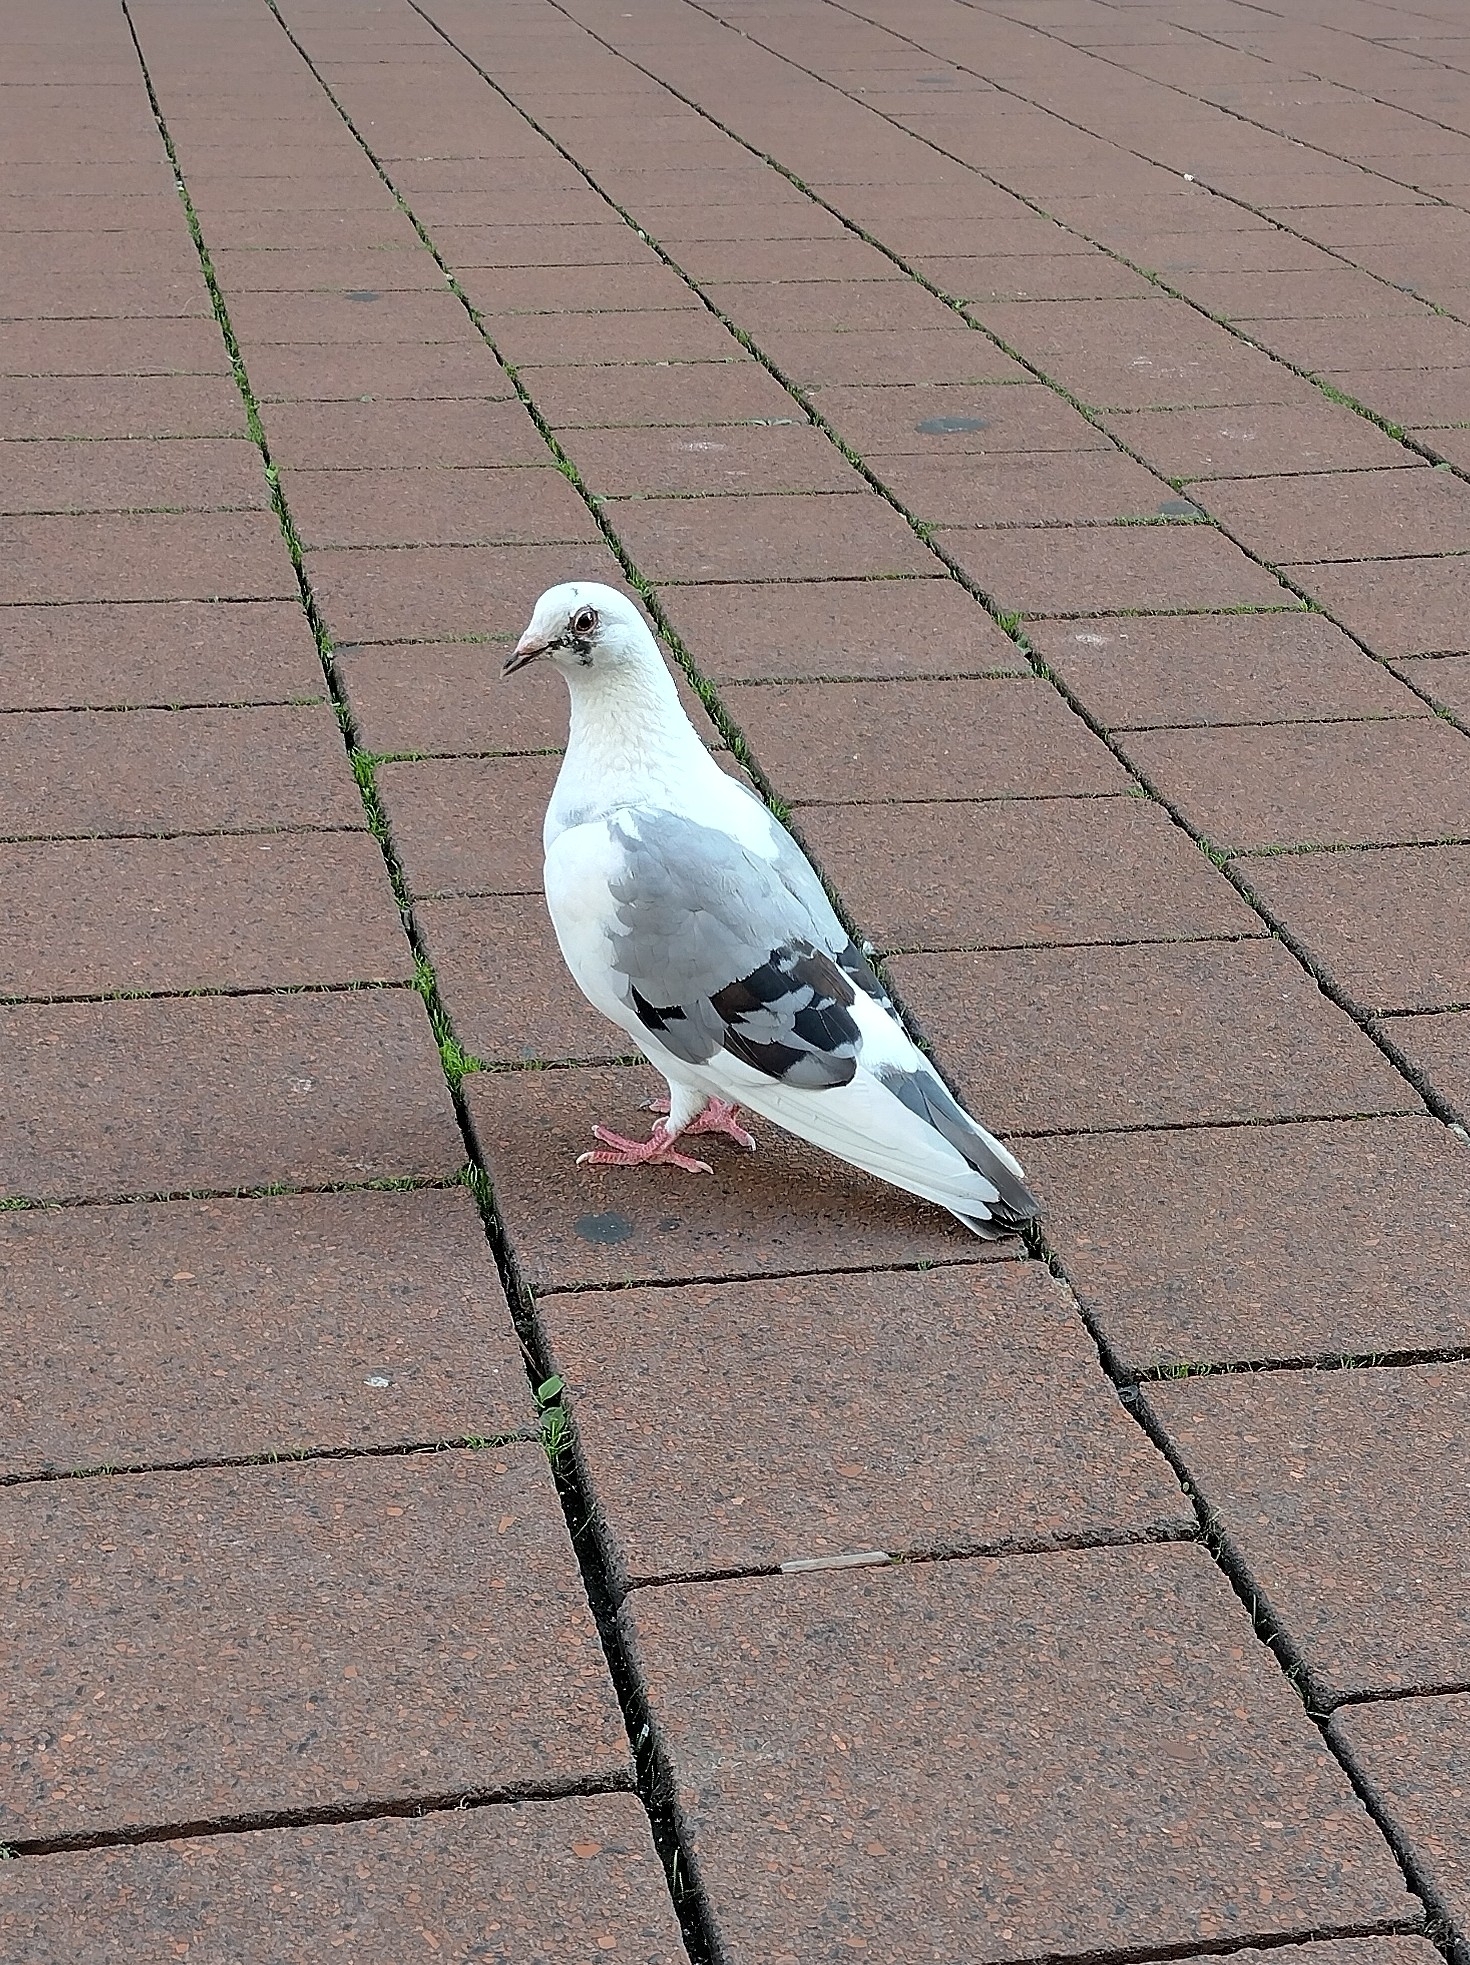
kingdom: Animalia
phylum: Chordata
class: Aves
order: Columbiformes
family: Columbidae
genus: Columba
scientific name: Columba livia
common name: Rock pigeon
